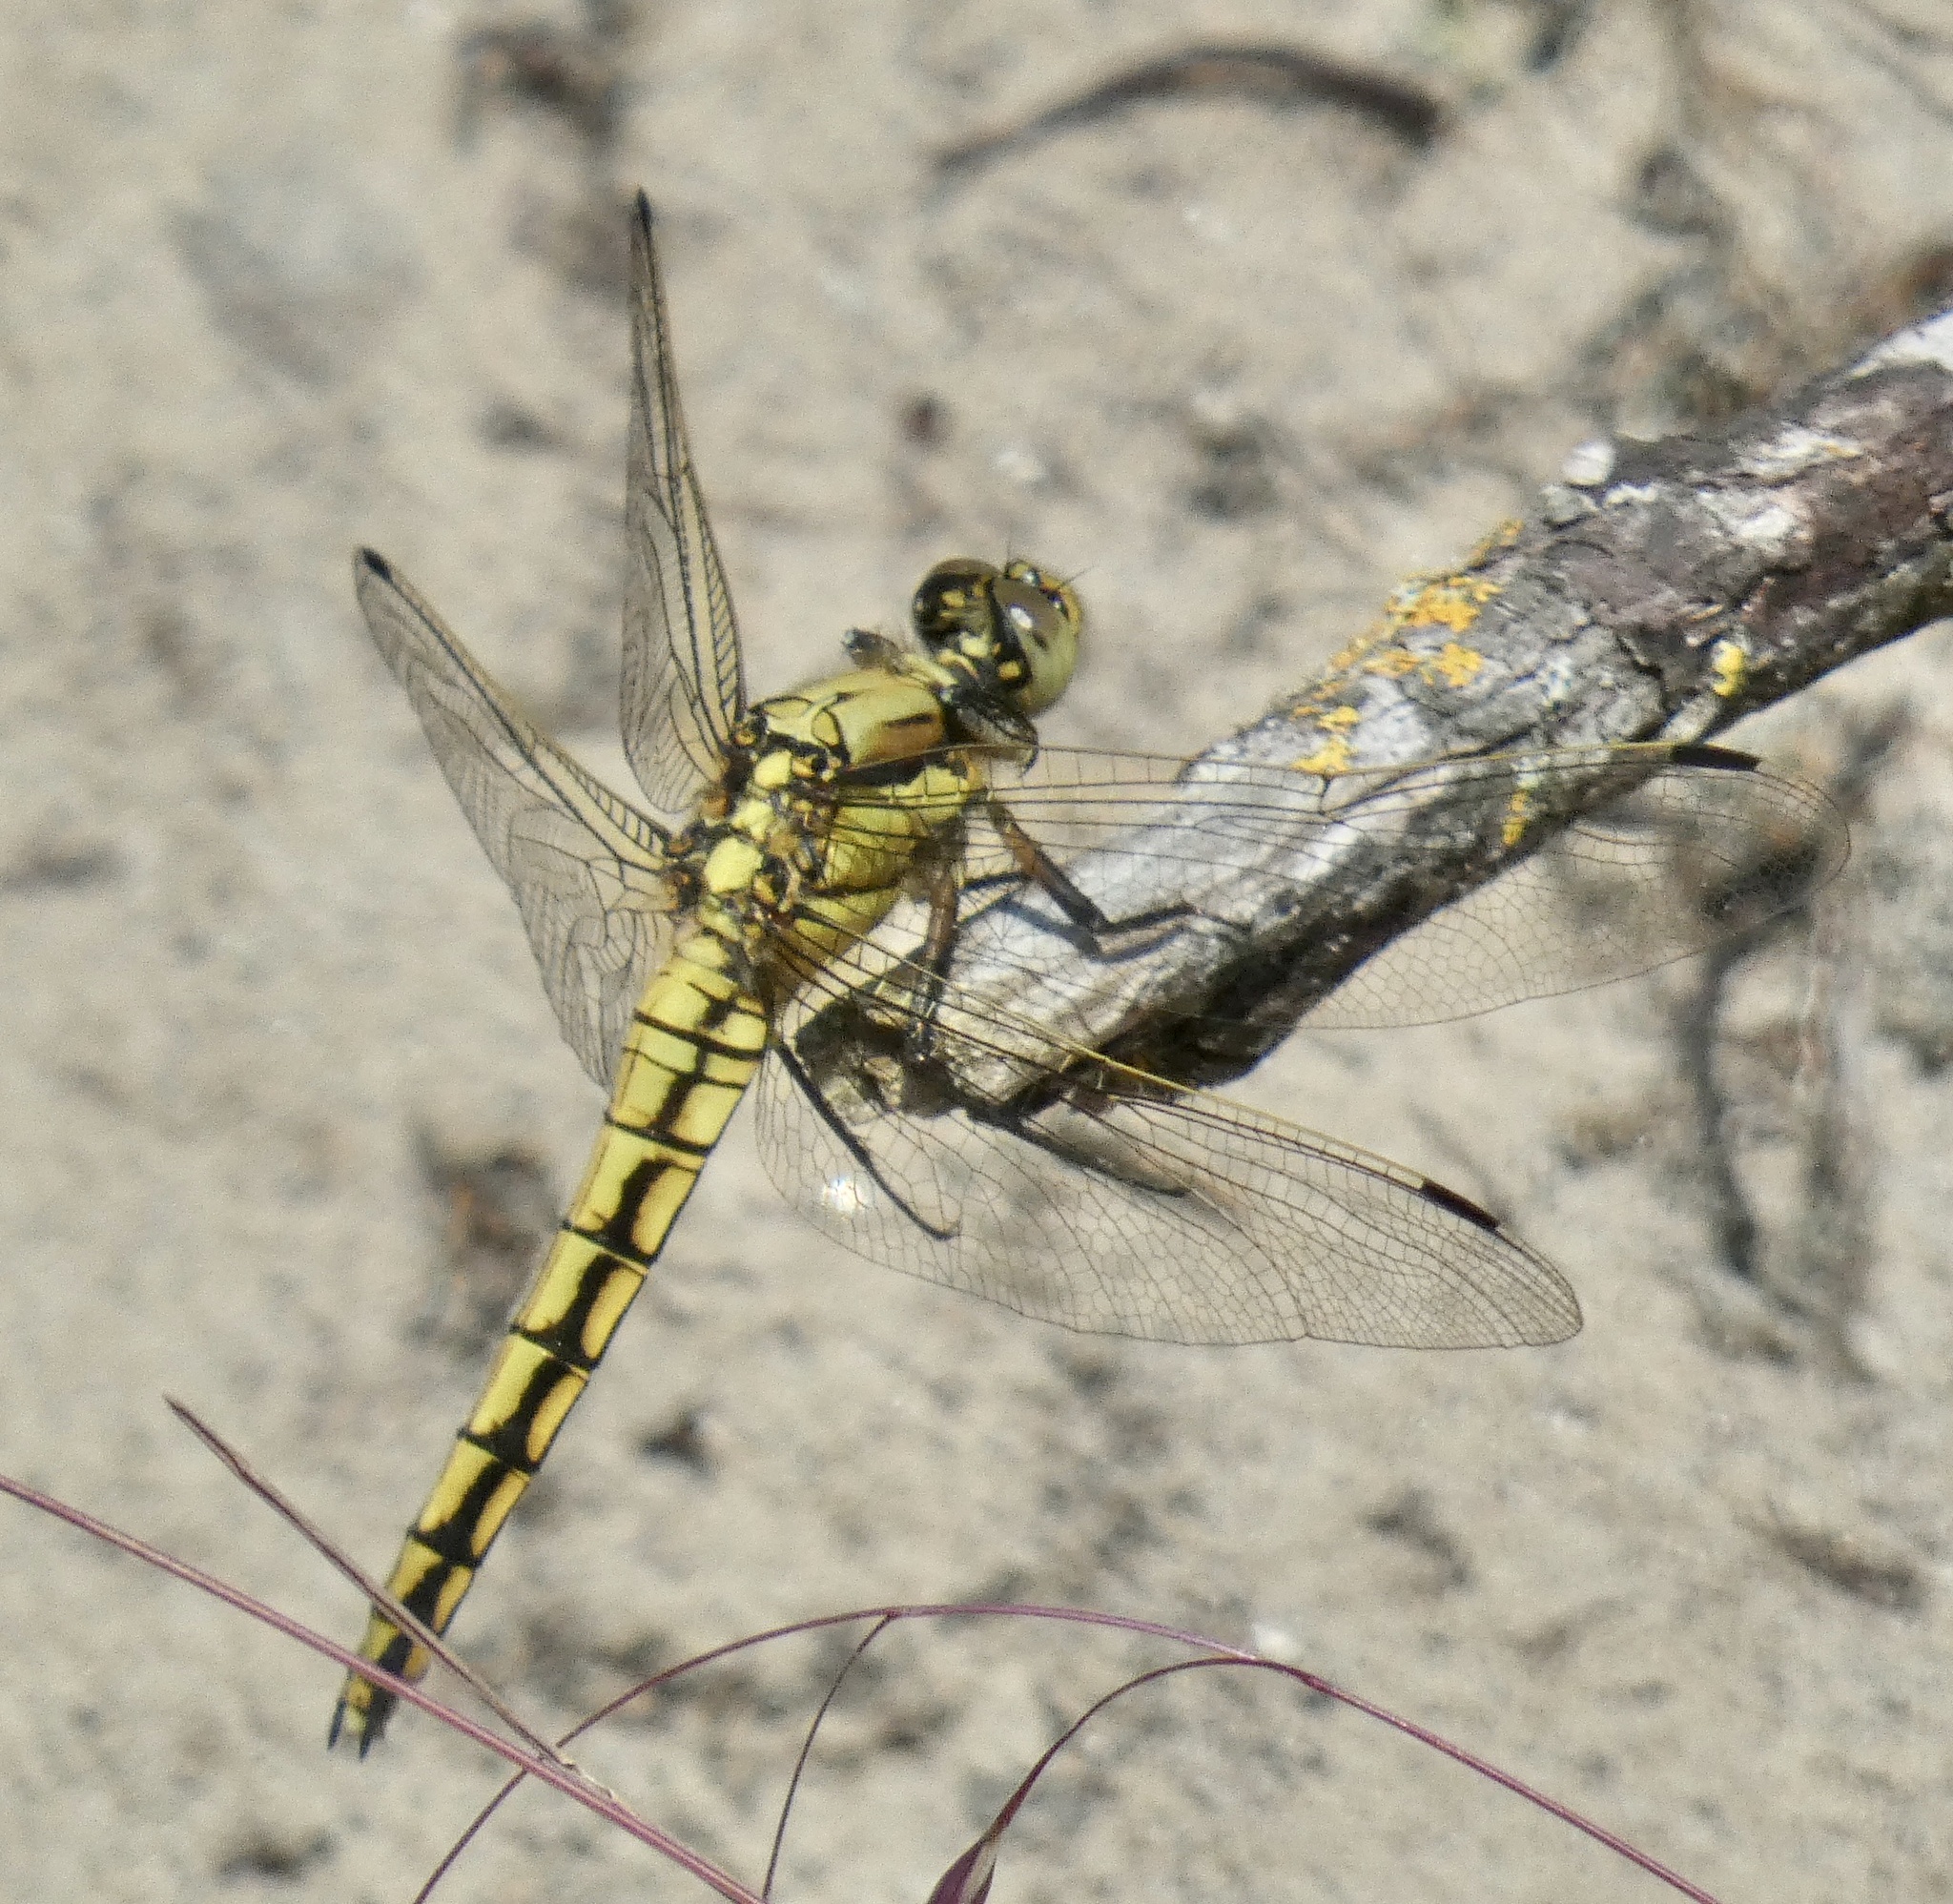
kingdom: Animalia
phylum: Arthropoda
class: Insecta
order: Odonata
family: Libellulidae
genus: Orthetrum
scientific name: Orthetrum cancellatum
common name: Black-tailed skimmer
